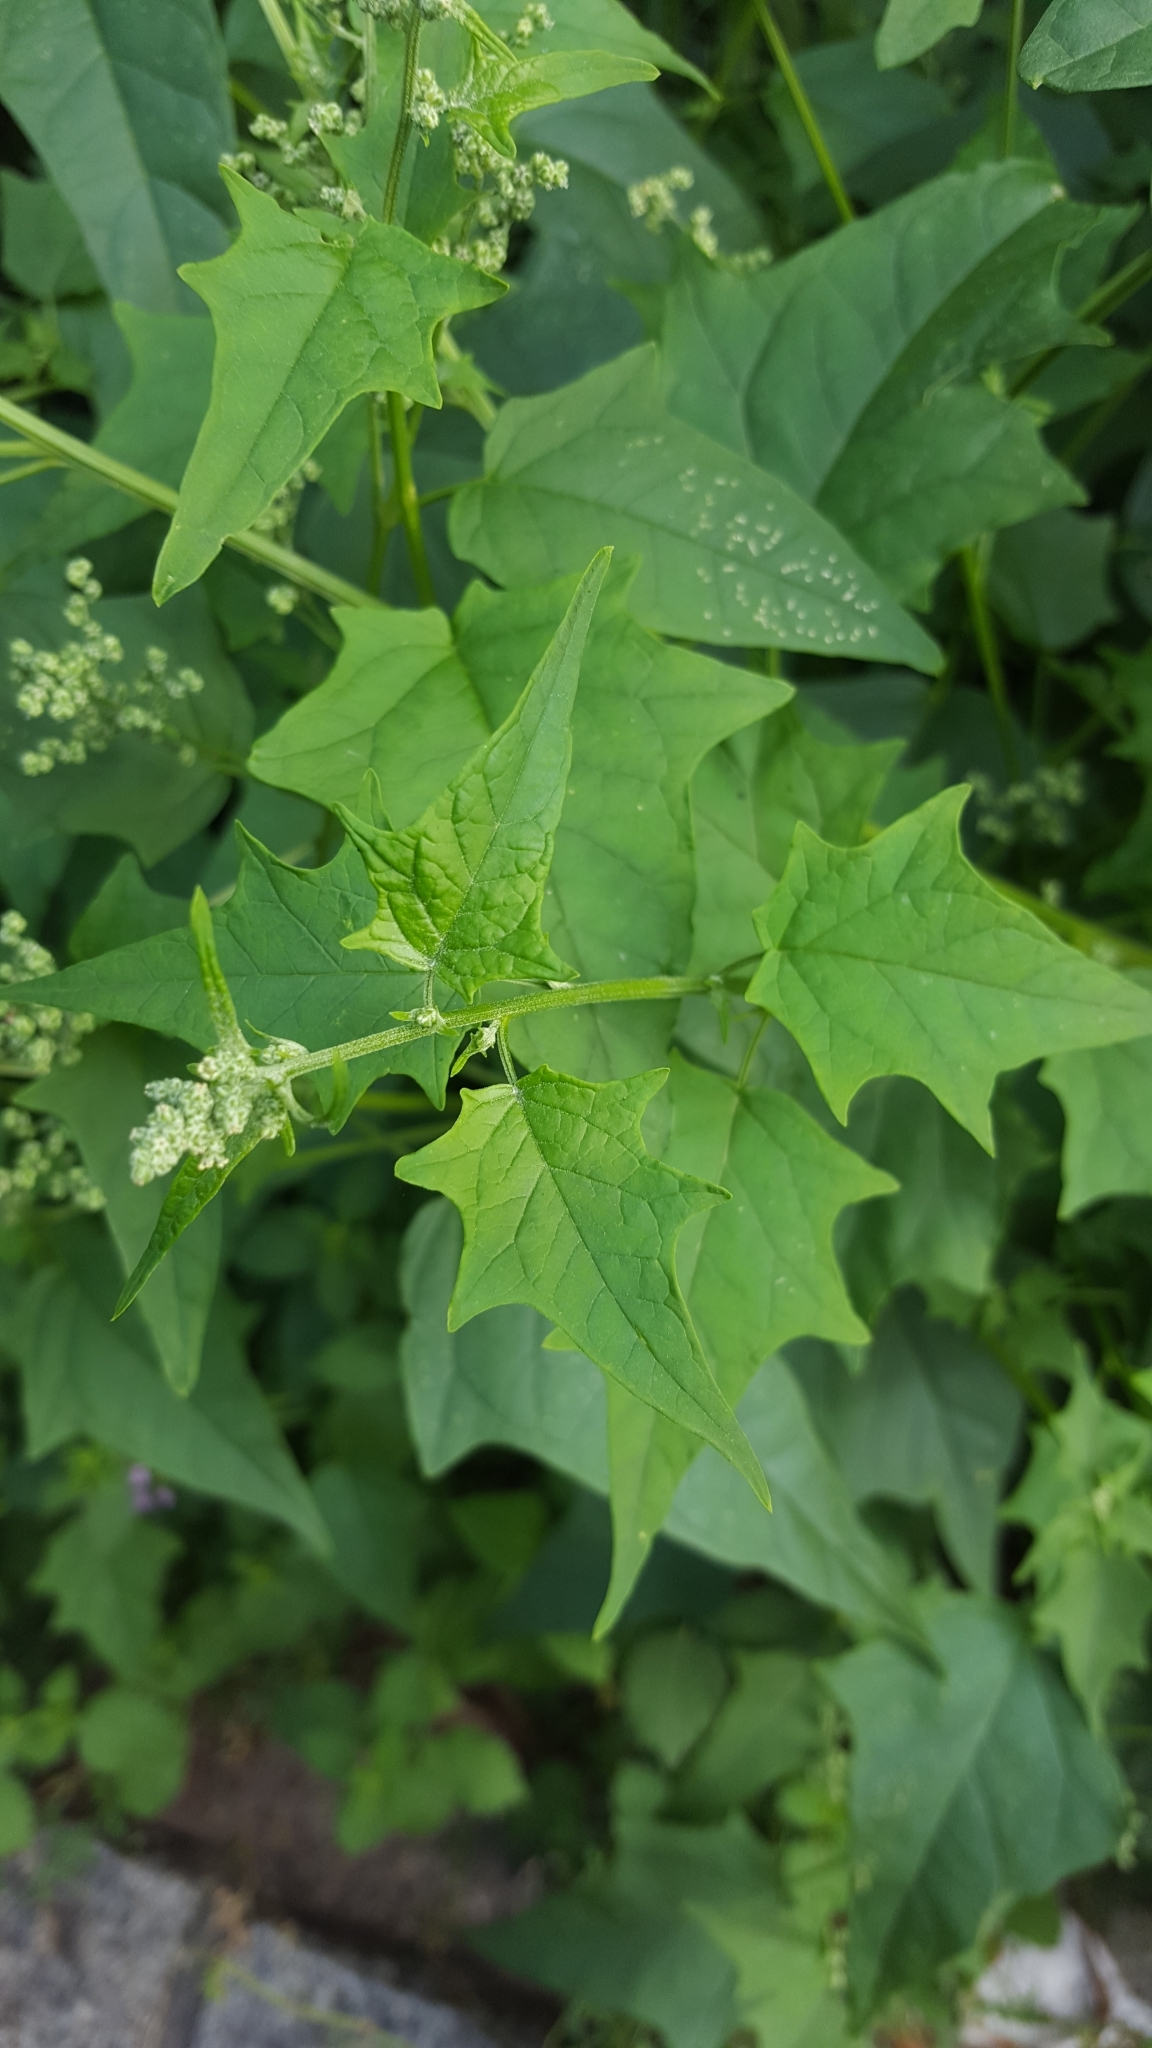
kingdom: Plantae
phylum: Tracheophyta
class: Magnoliopsida
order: Caryophyllales
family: Amaranthaceae
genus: Chenopodiastrum
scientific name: Chenopodiastrum hybridum
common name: Mapleleaf goosefoot
